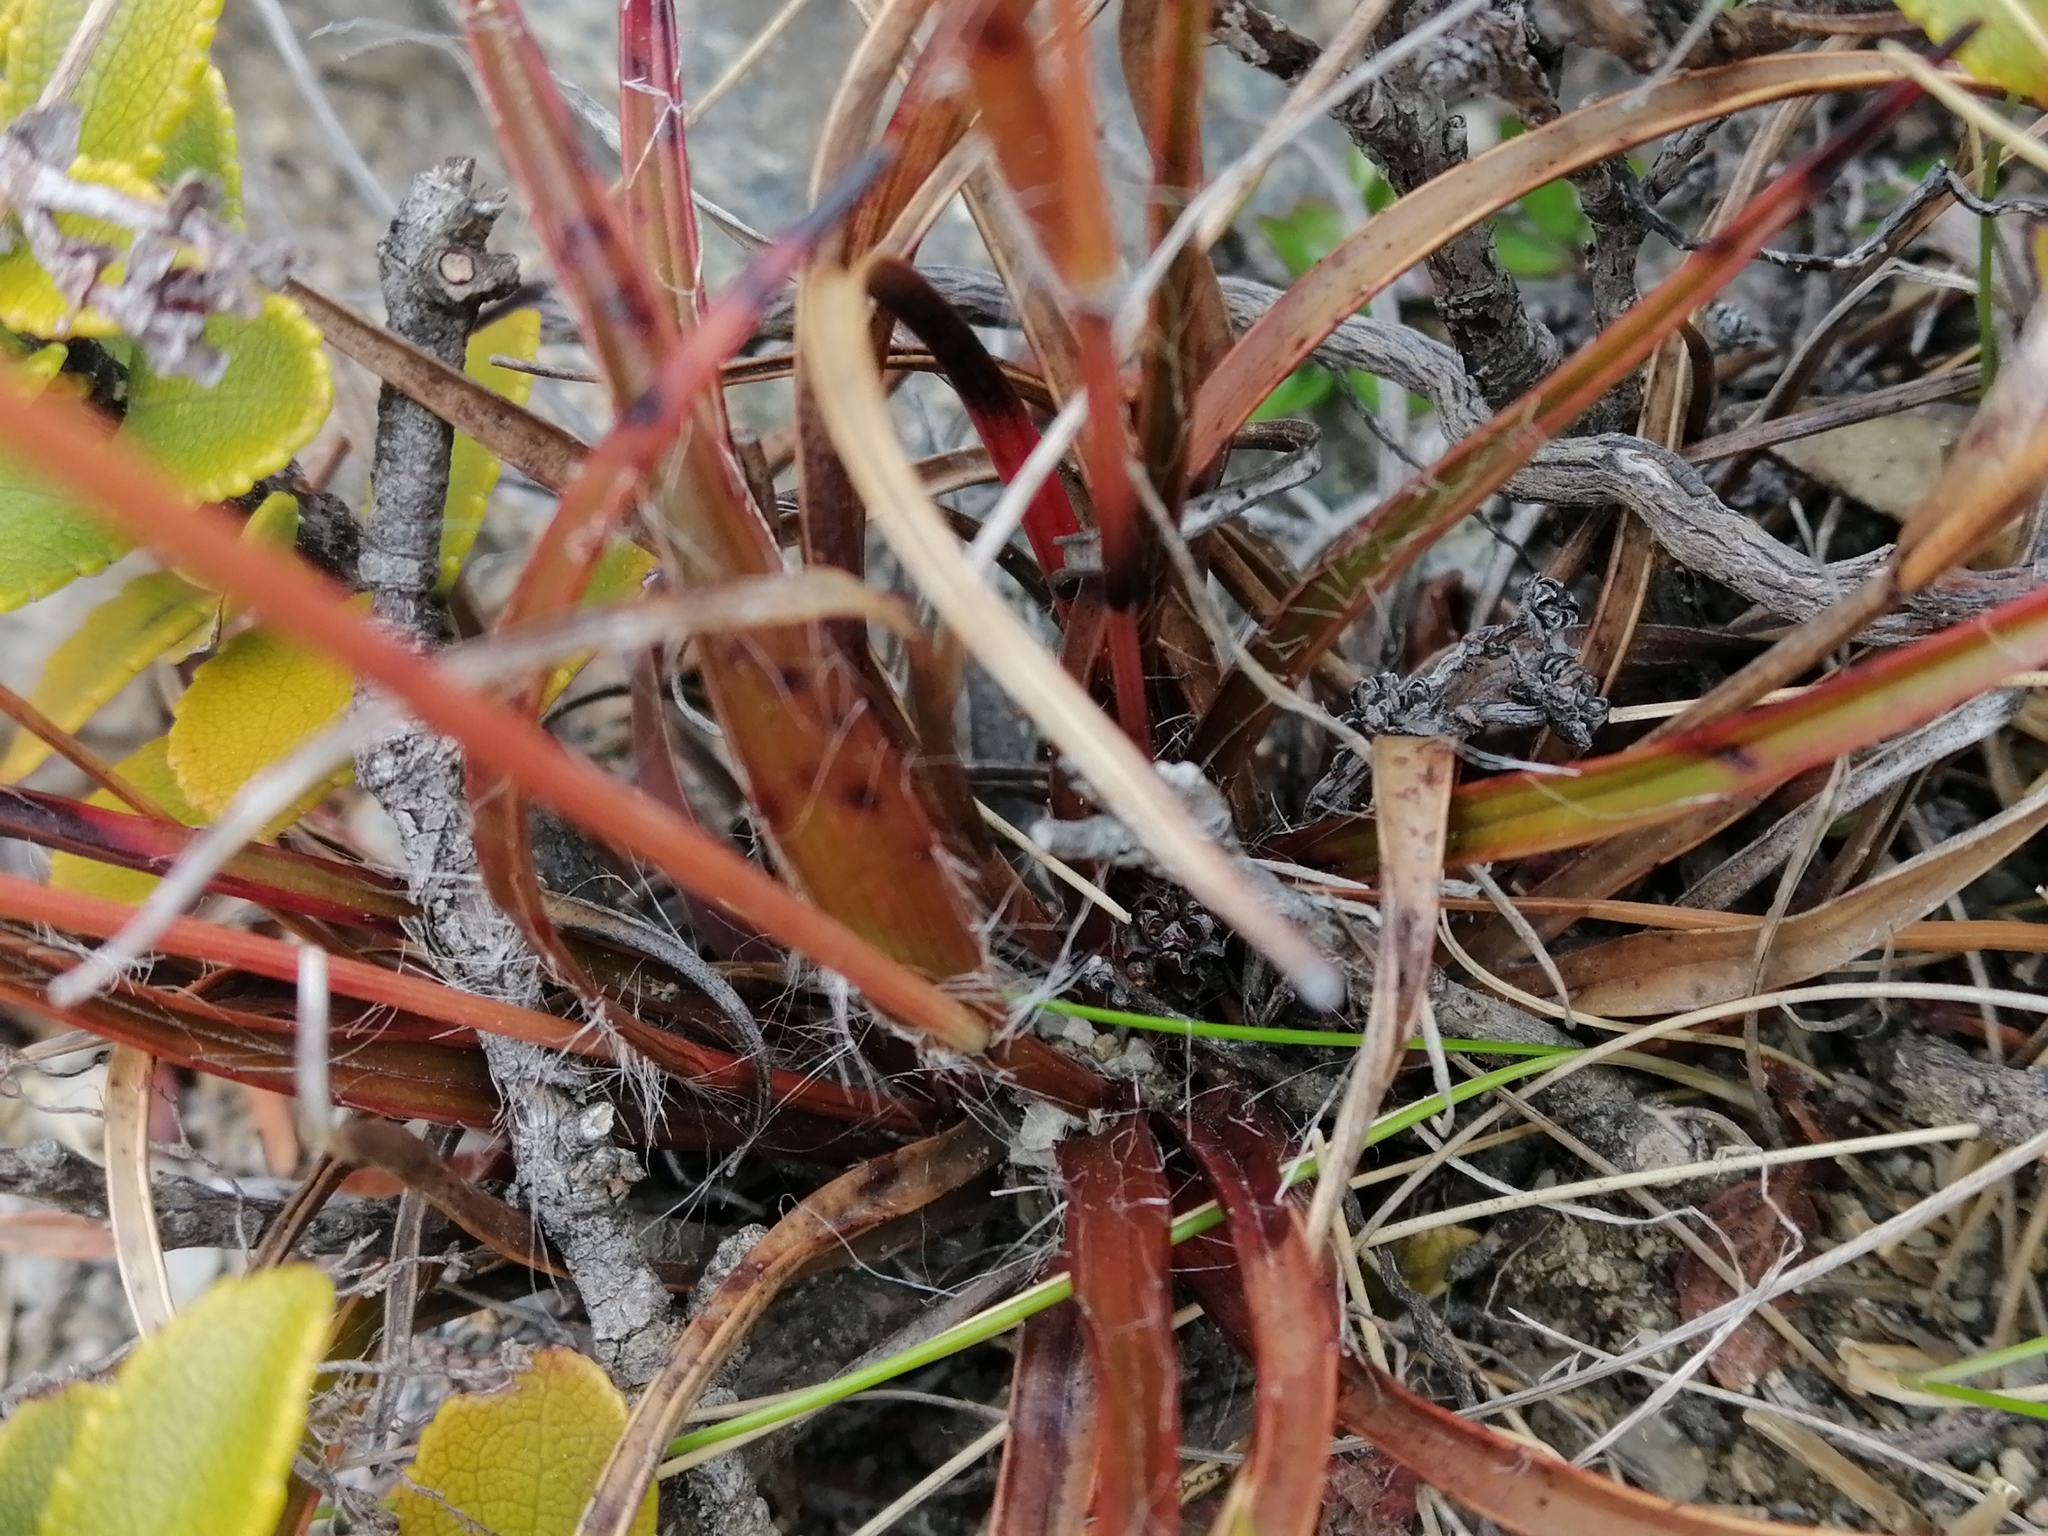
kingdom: Plantae
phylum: Tracheophyta
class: Liliopsida
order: Poales
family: Juncaceae
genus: Luzula
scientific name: Luzula rufa
